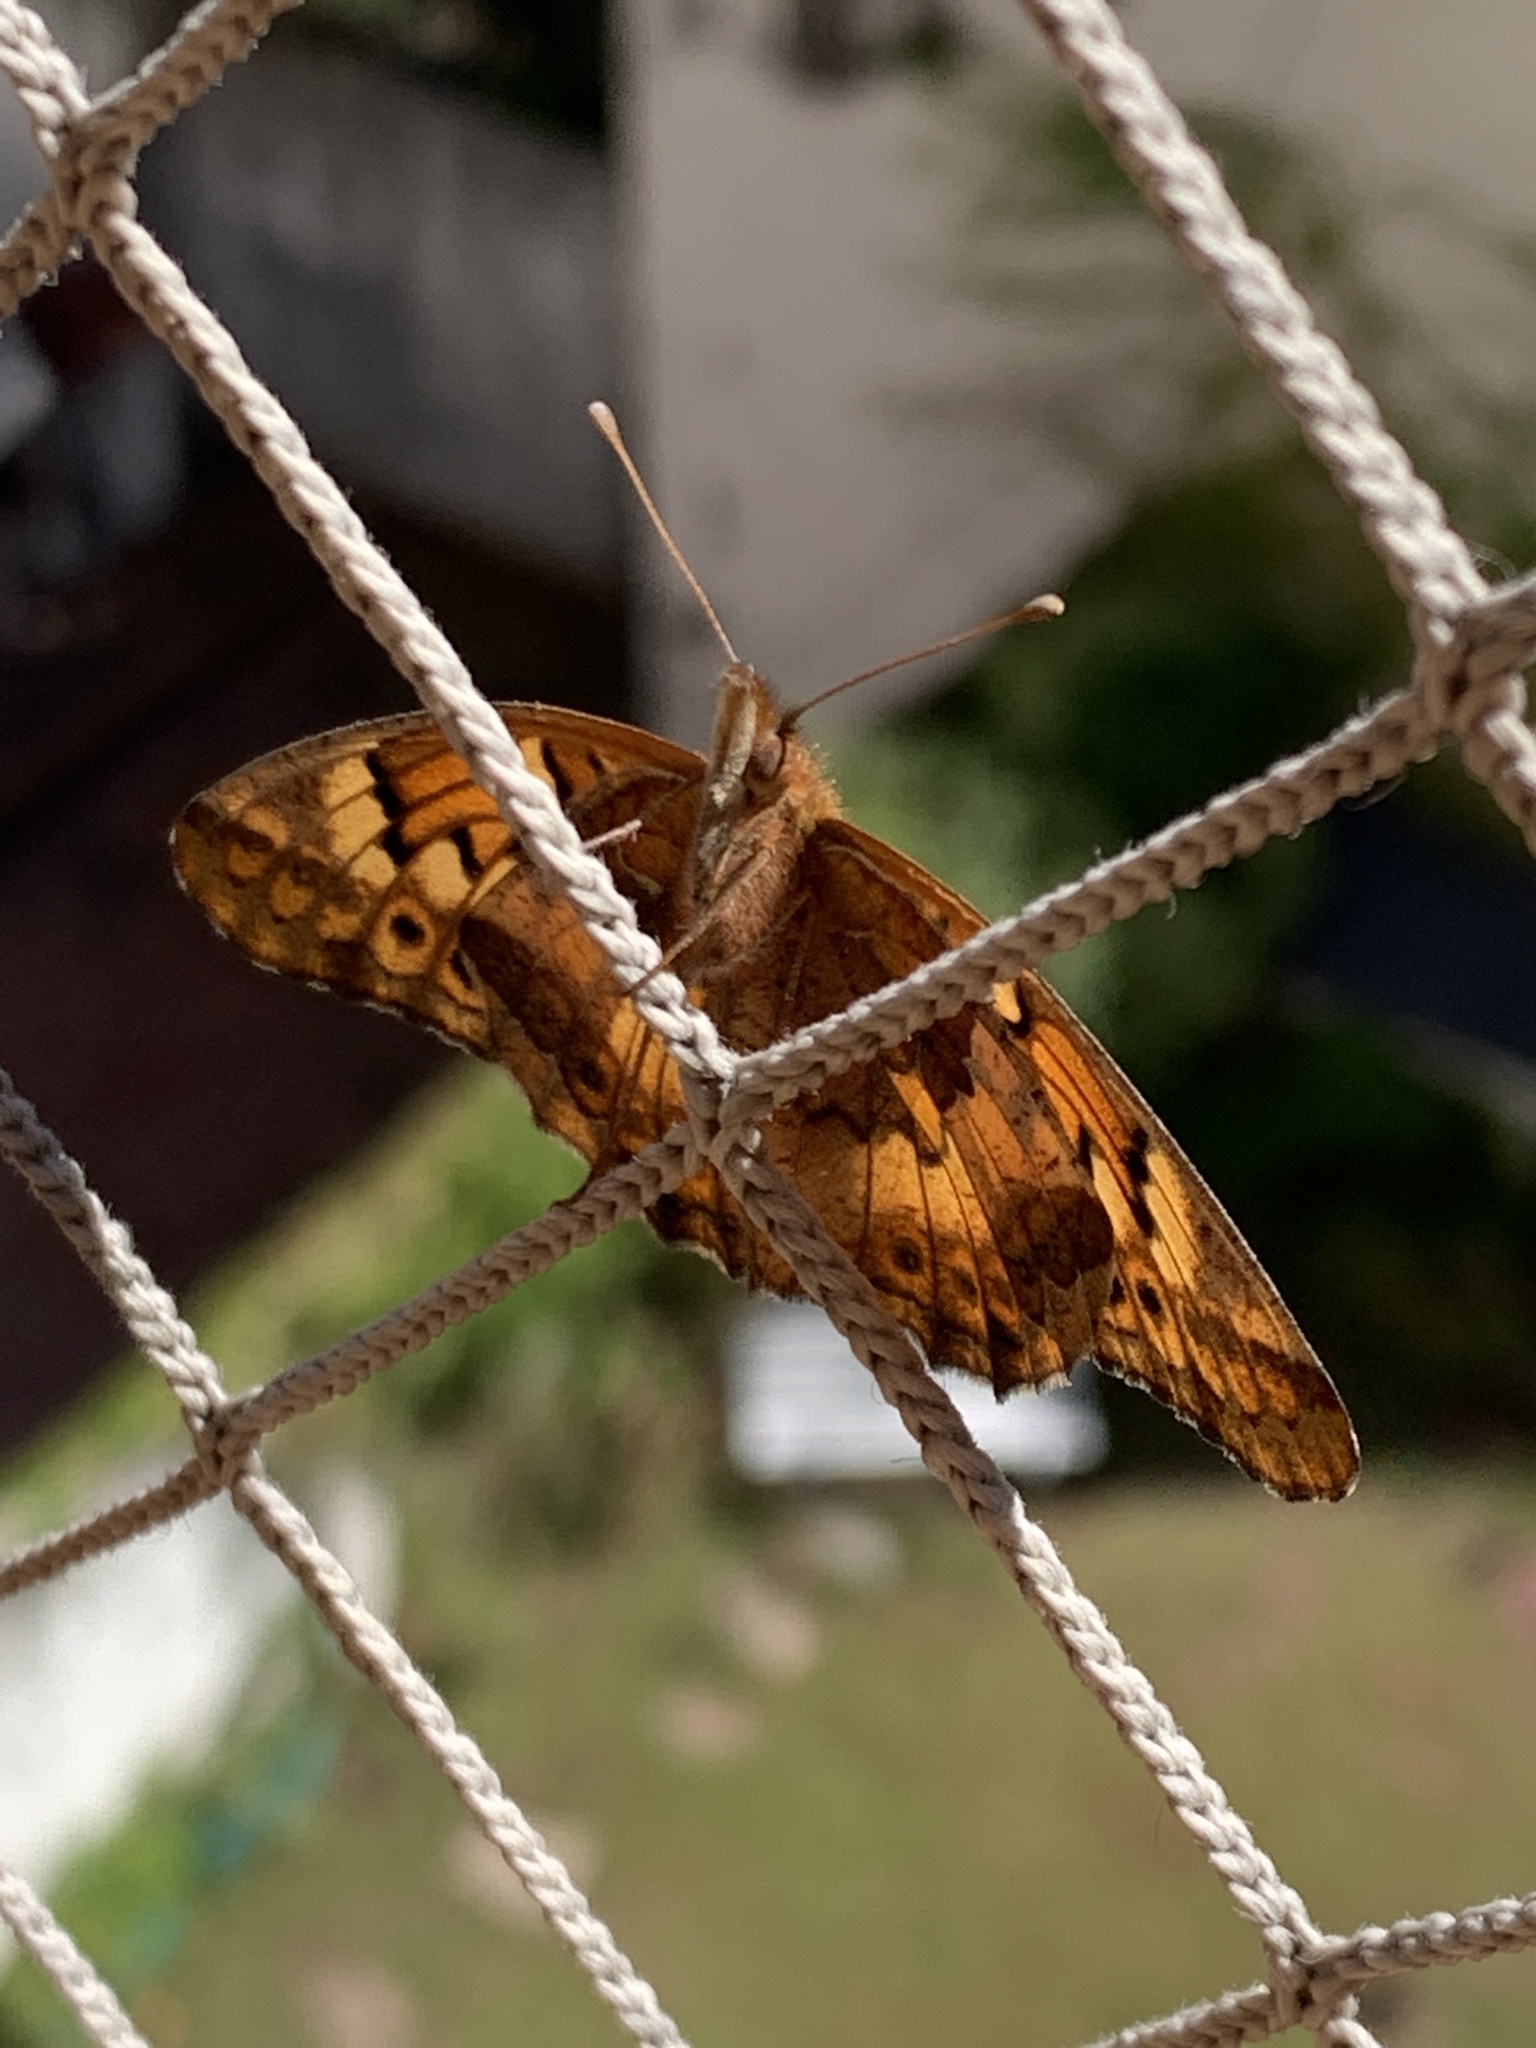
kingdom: Animalia
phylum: Arthropoda
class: Insecta
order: Lepidoptera
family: Nymphalidae
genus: Euptoieta
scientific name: Euptoieta hortensia
